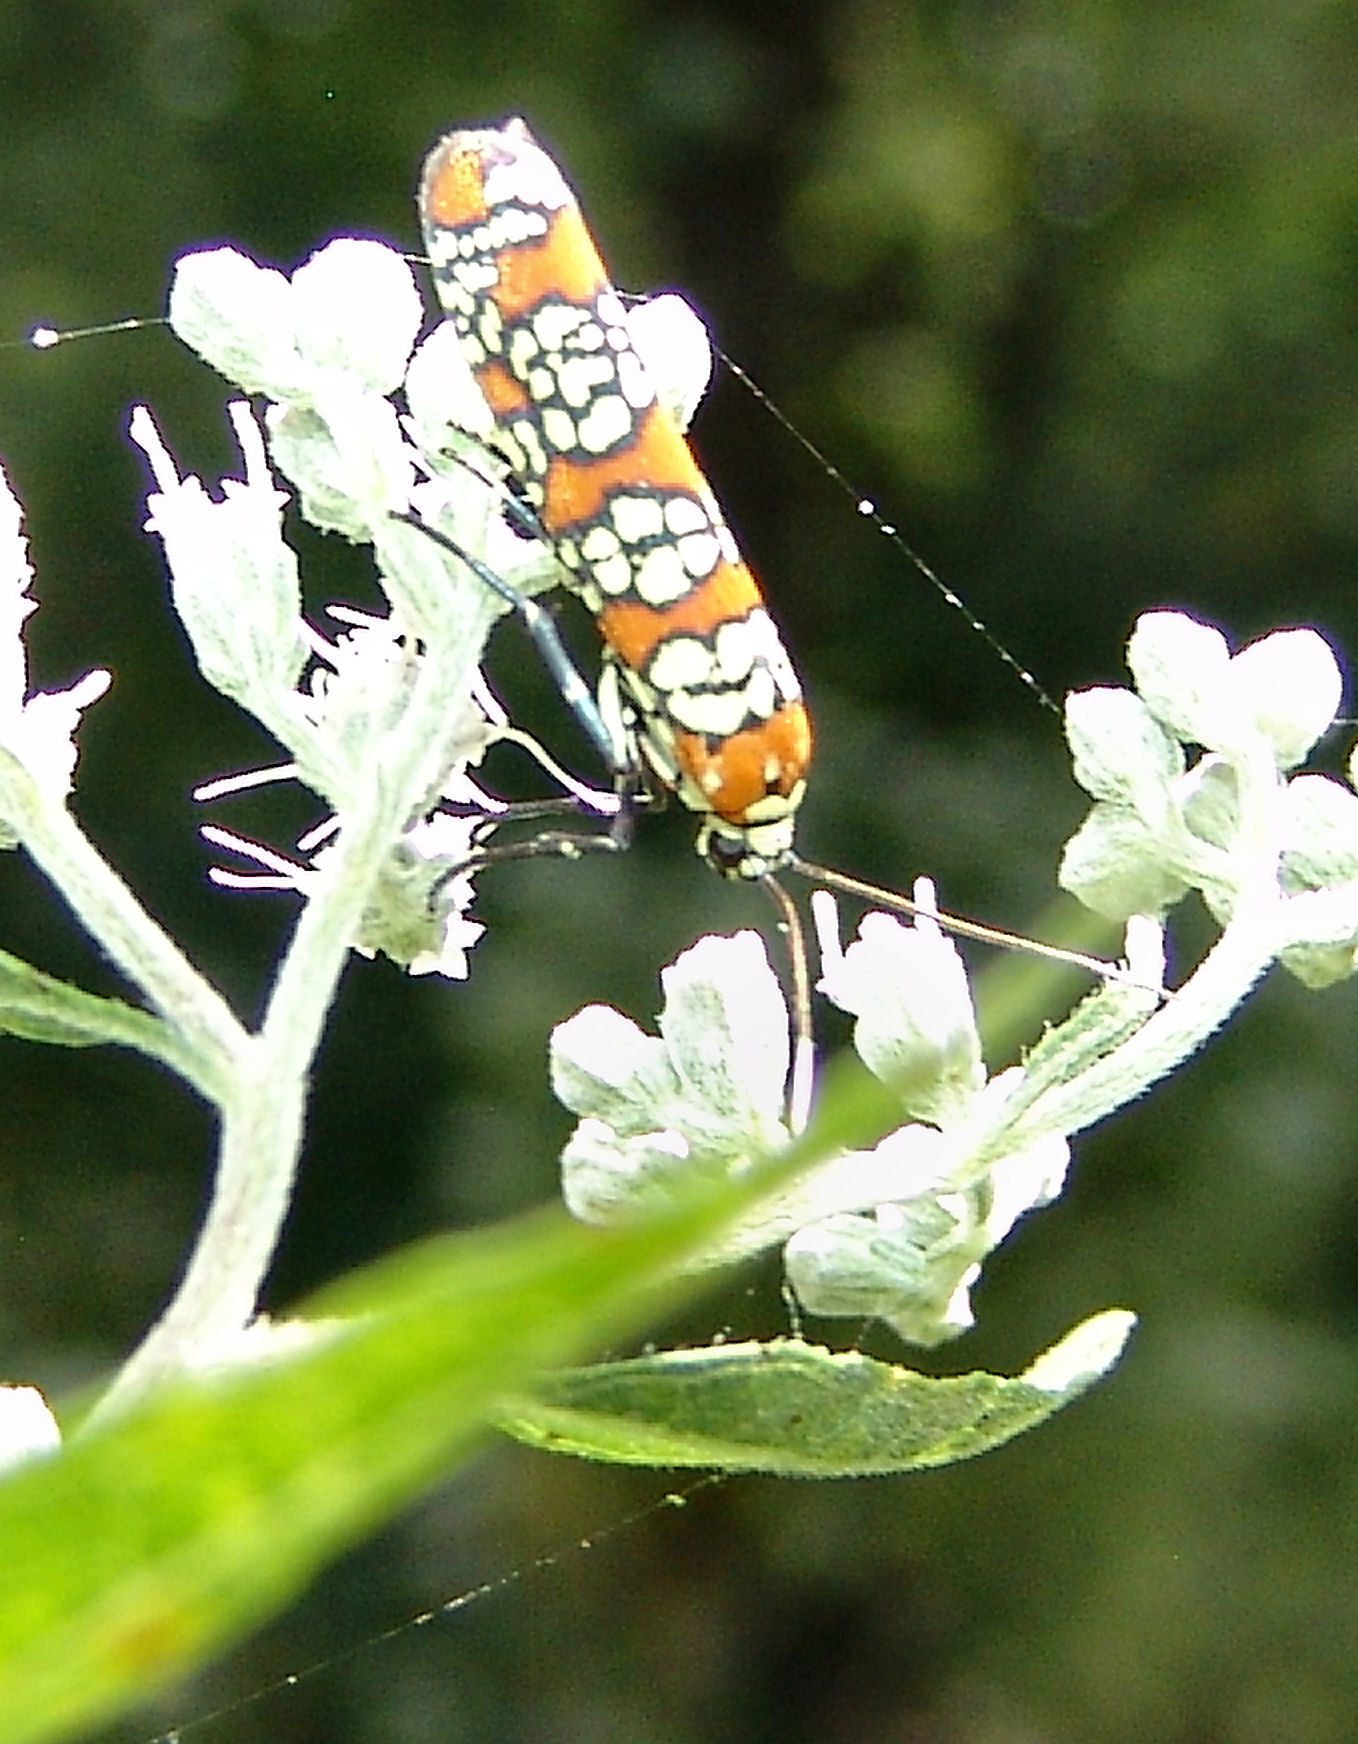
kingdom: Animalia
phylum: Arthropoda
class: Insecta
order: Lepidoptera
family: Attevidae
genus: Atteva
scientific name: Atteva punctella
